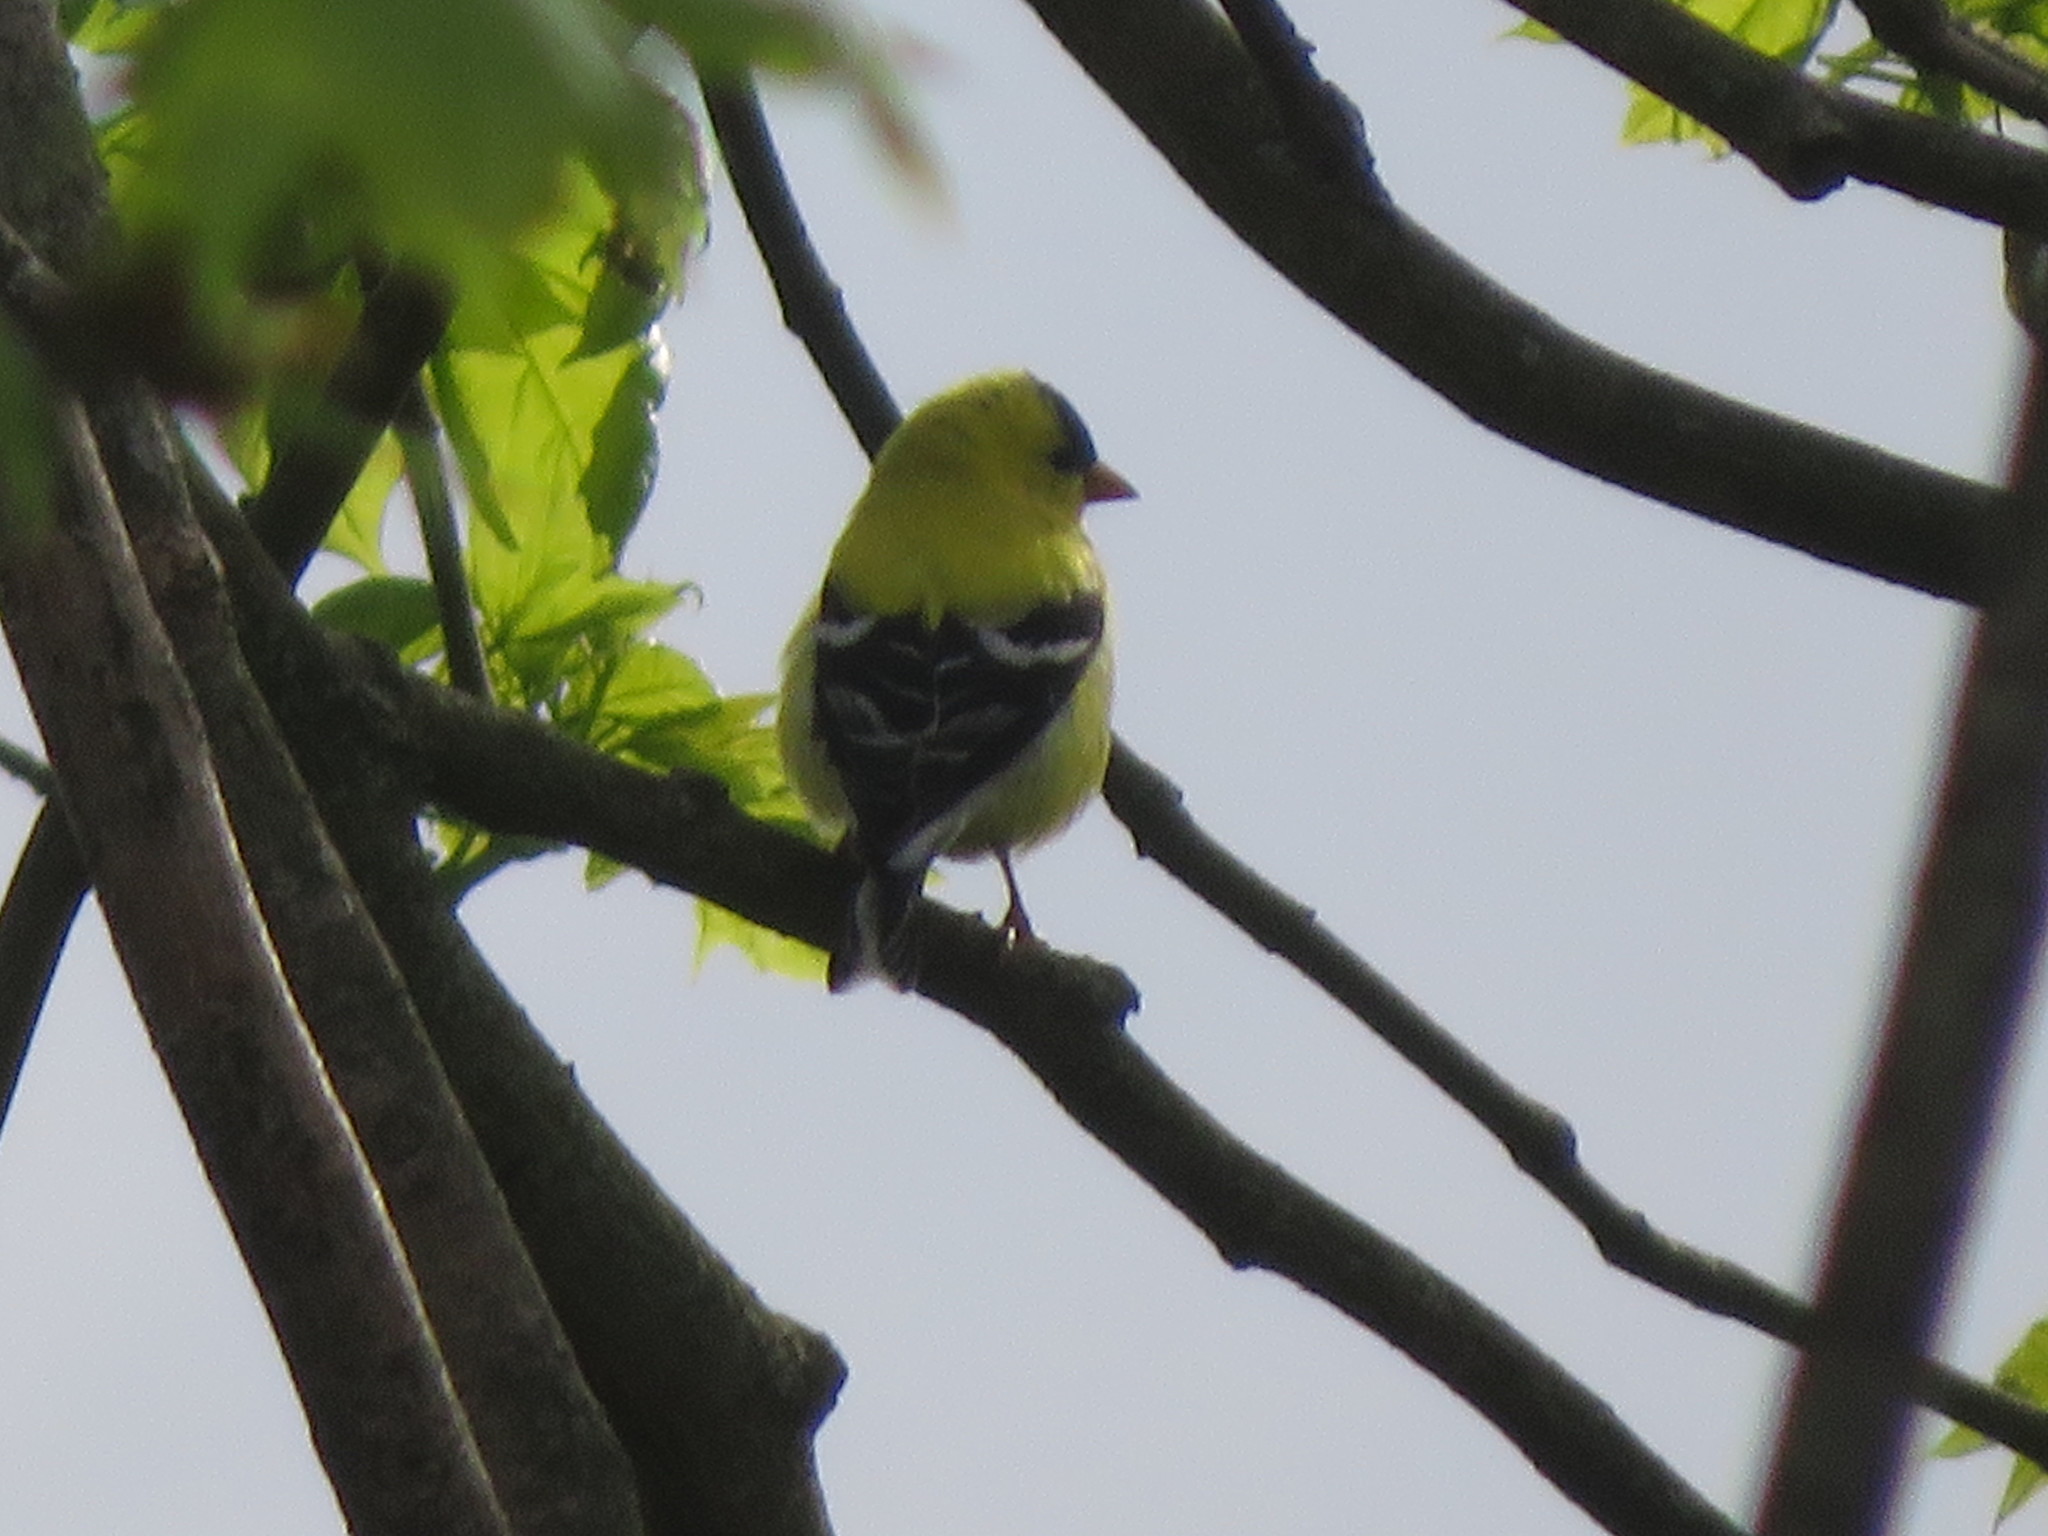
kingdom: Animalia
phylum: Chordata
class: Aves
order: Passeriformes
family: Fringillidae
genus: Spinus
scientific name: Spinus tristis
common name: American goldfinch
